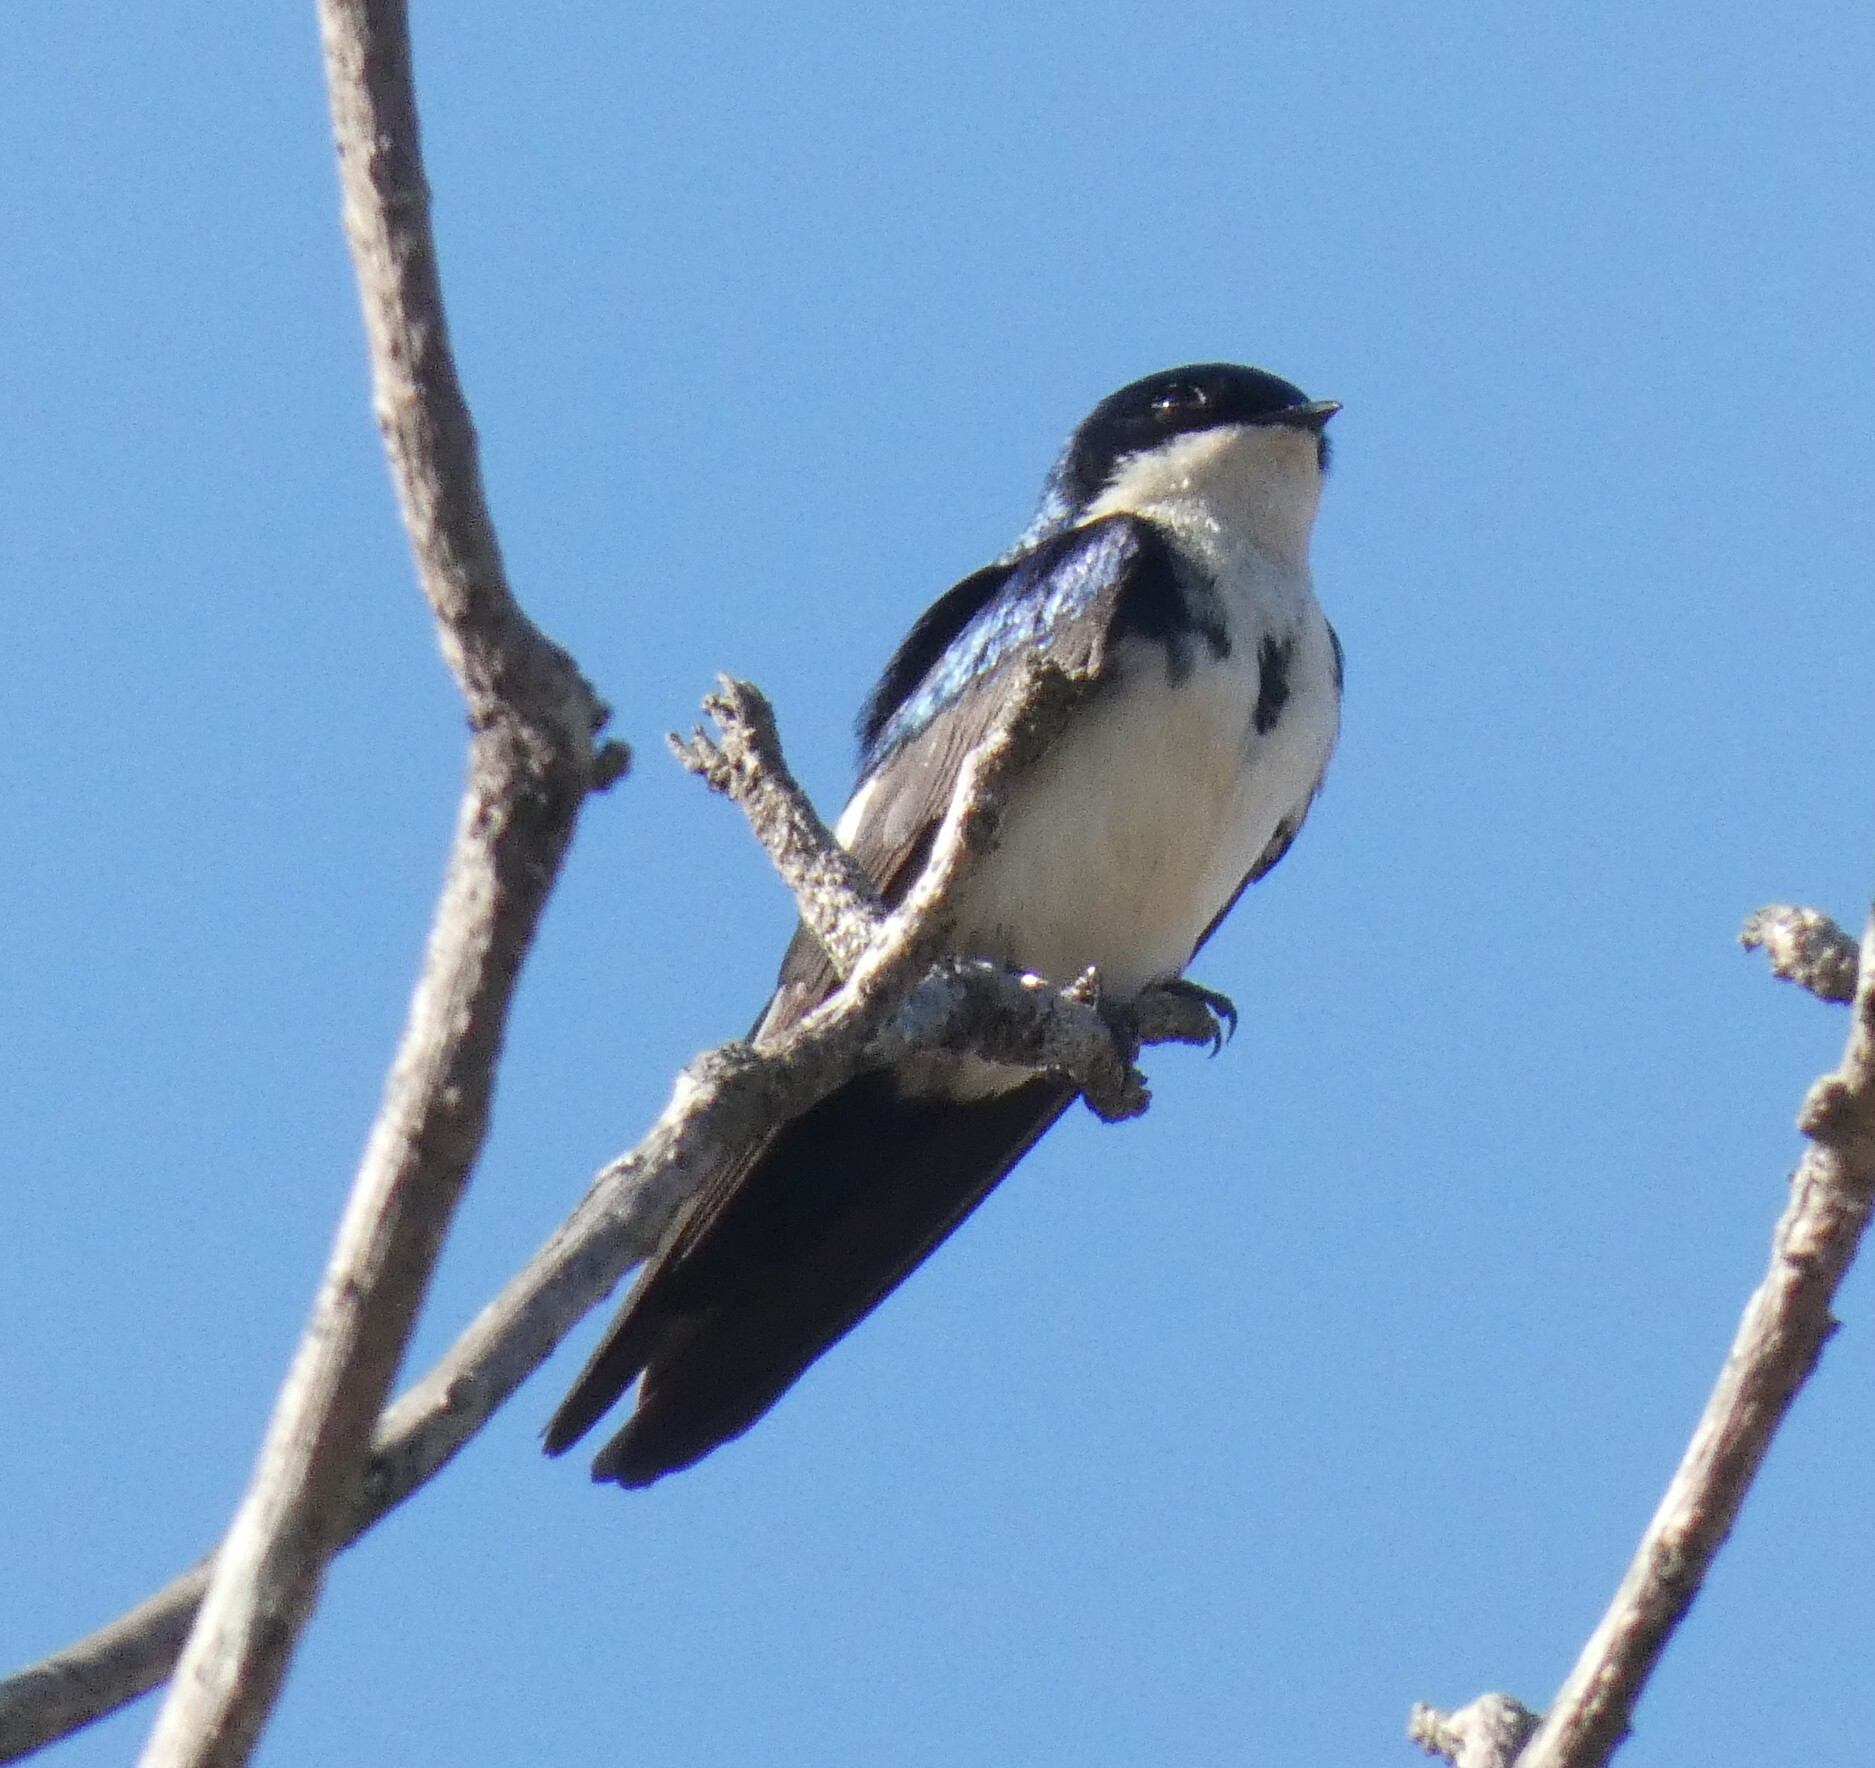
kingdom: Animalia
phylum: Chordata
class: Aves
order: Passeriformes
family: Hirundinidae
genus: Notiochelidon
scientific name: Notiochelidon cyanoleuca
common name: Blue-and-white swallow
